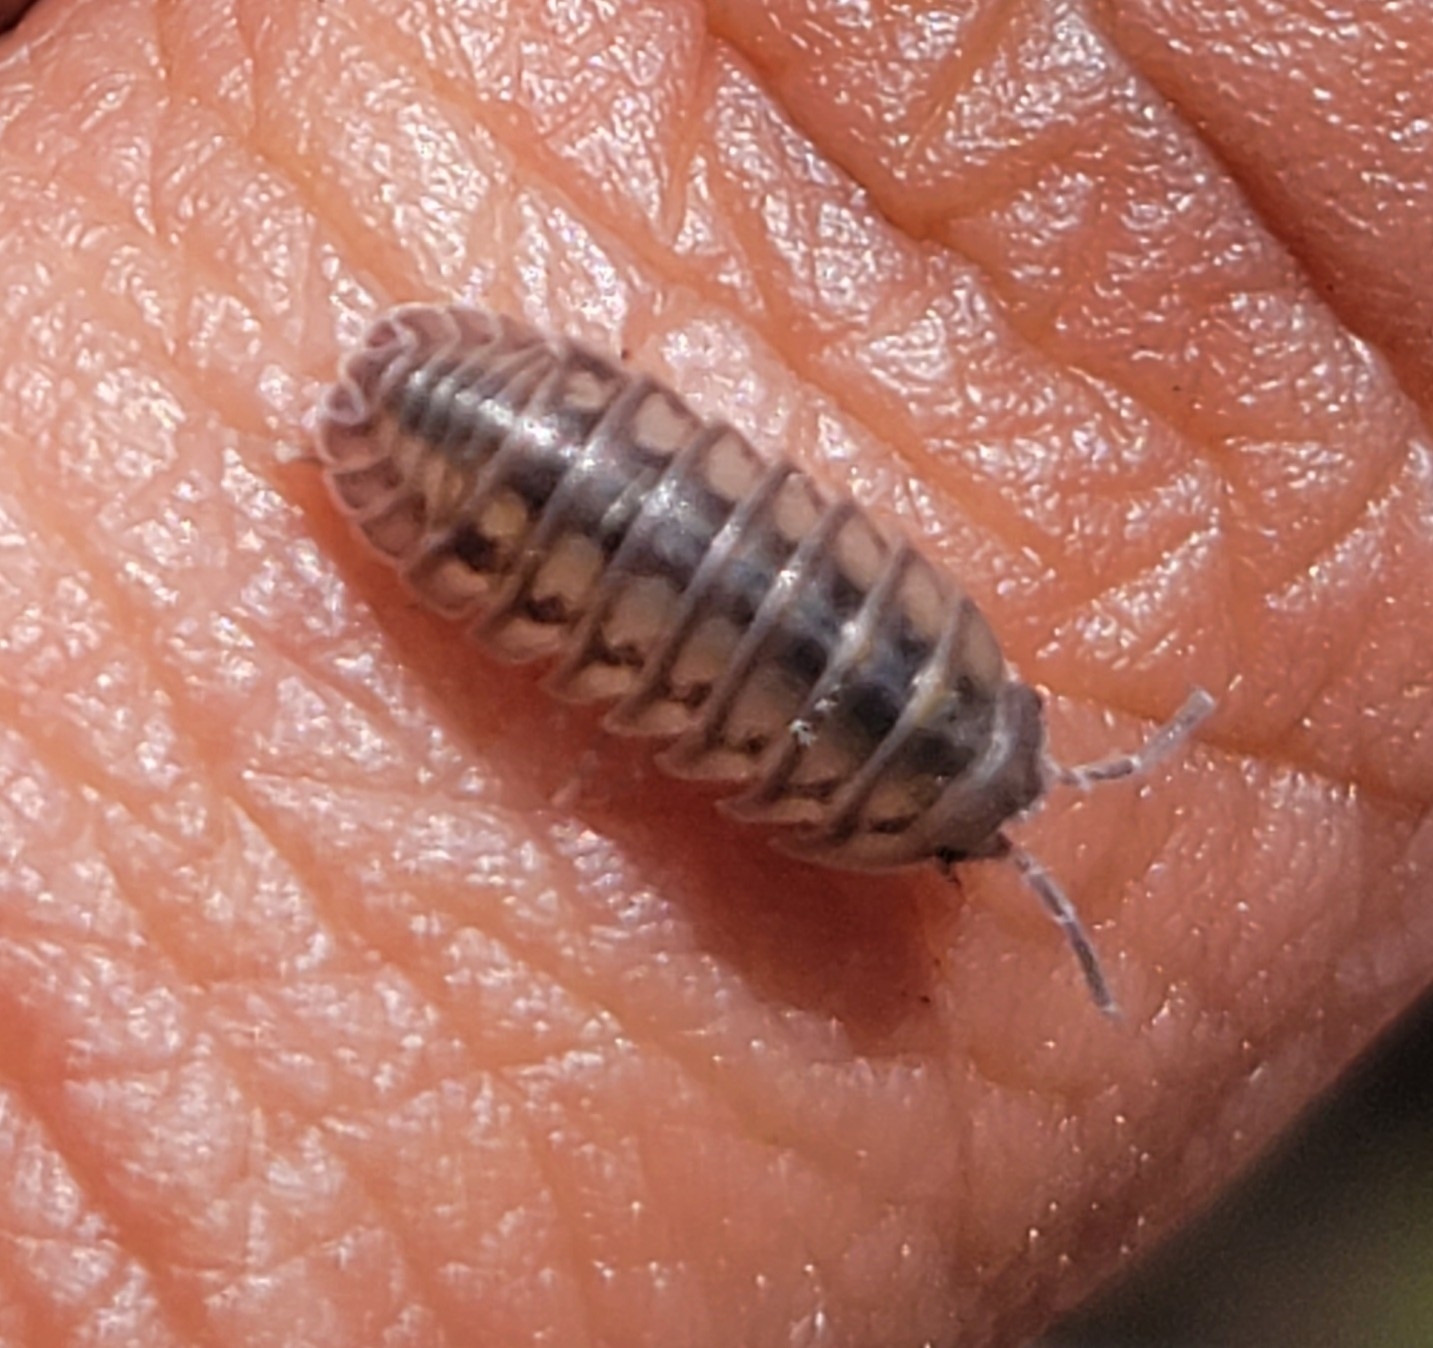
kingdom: Animalia
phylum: Arthropoda
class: Malacostraca
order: Isopoda
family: Armadillidiidae
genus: Armadillidium
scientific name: Armadillidium nasatum
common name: Isopod
